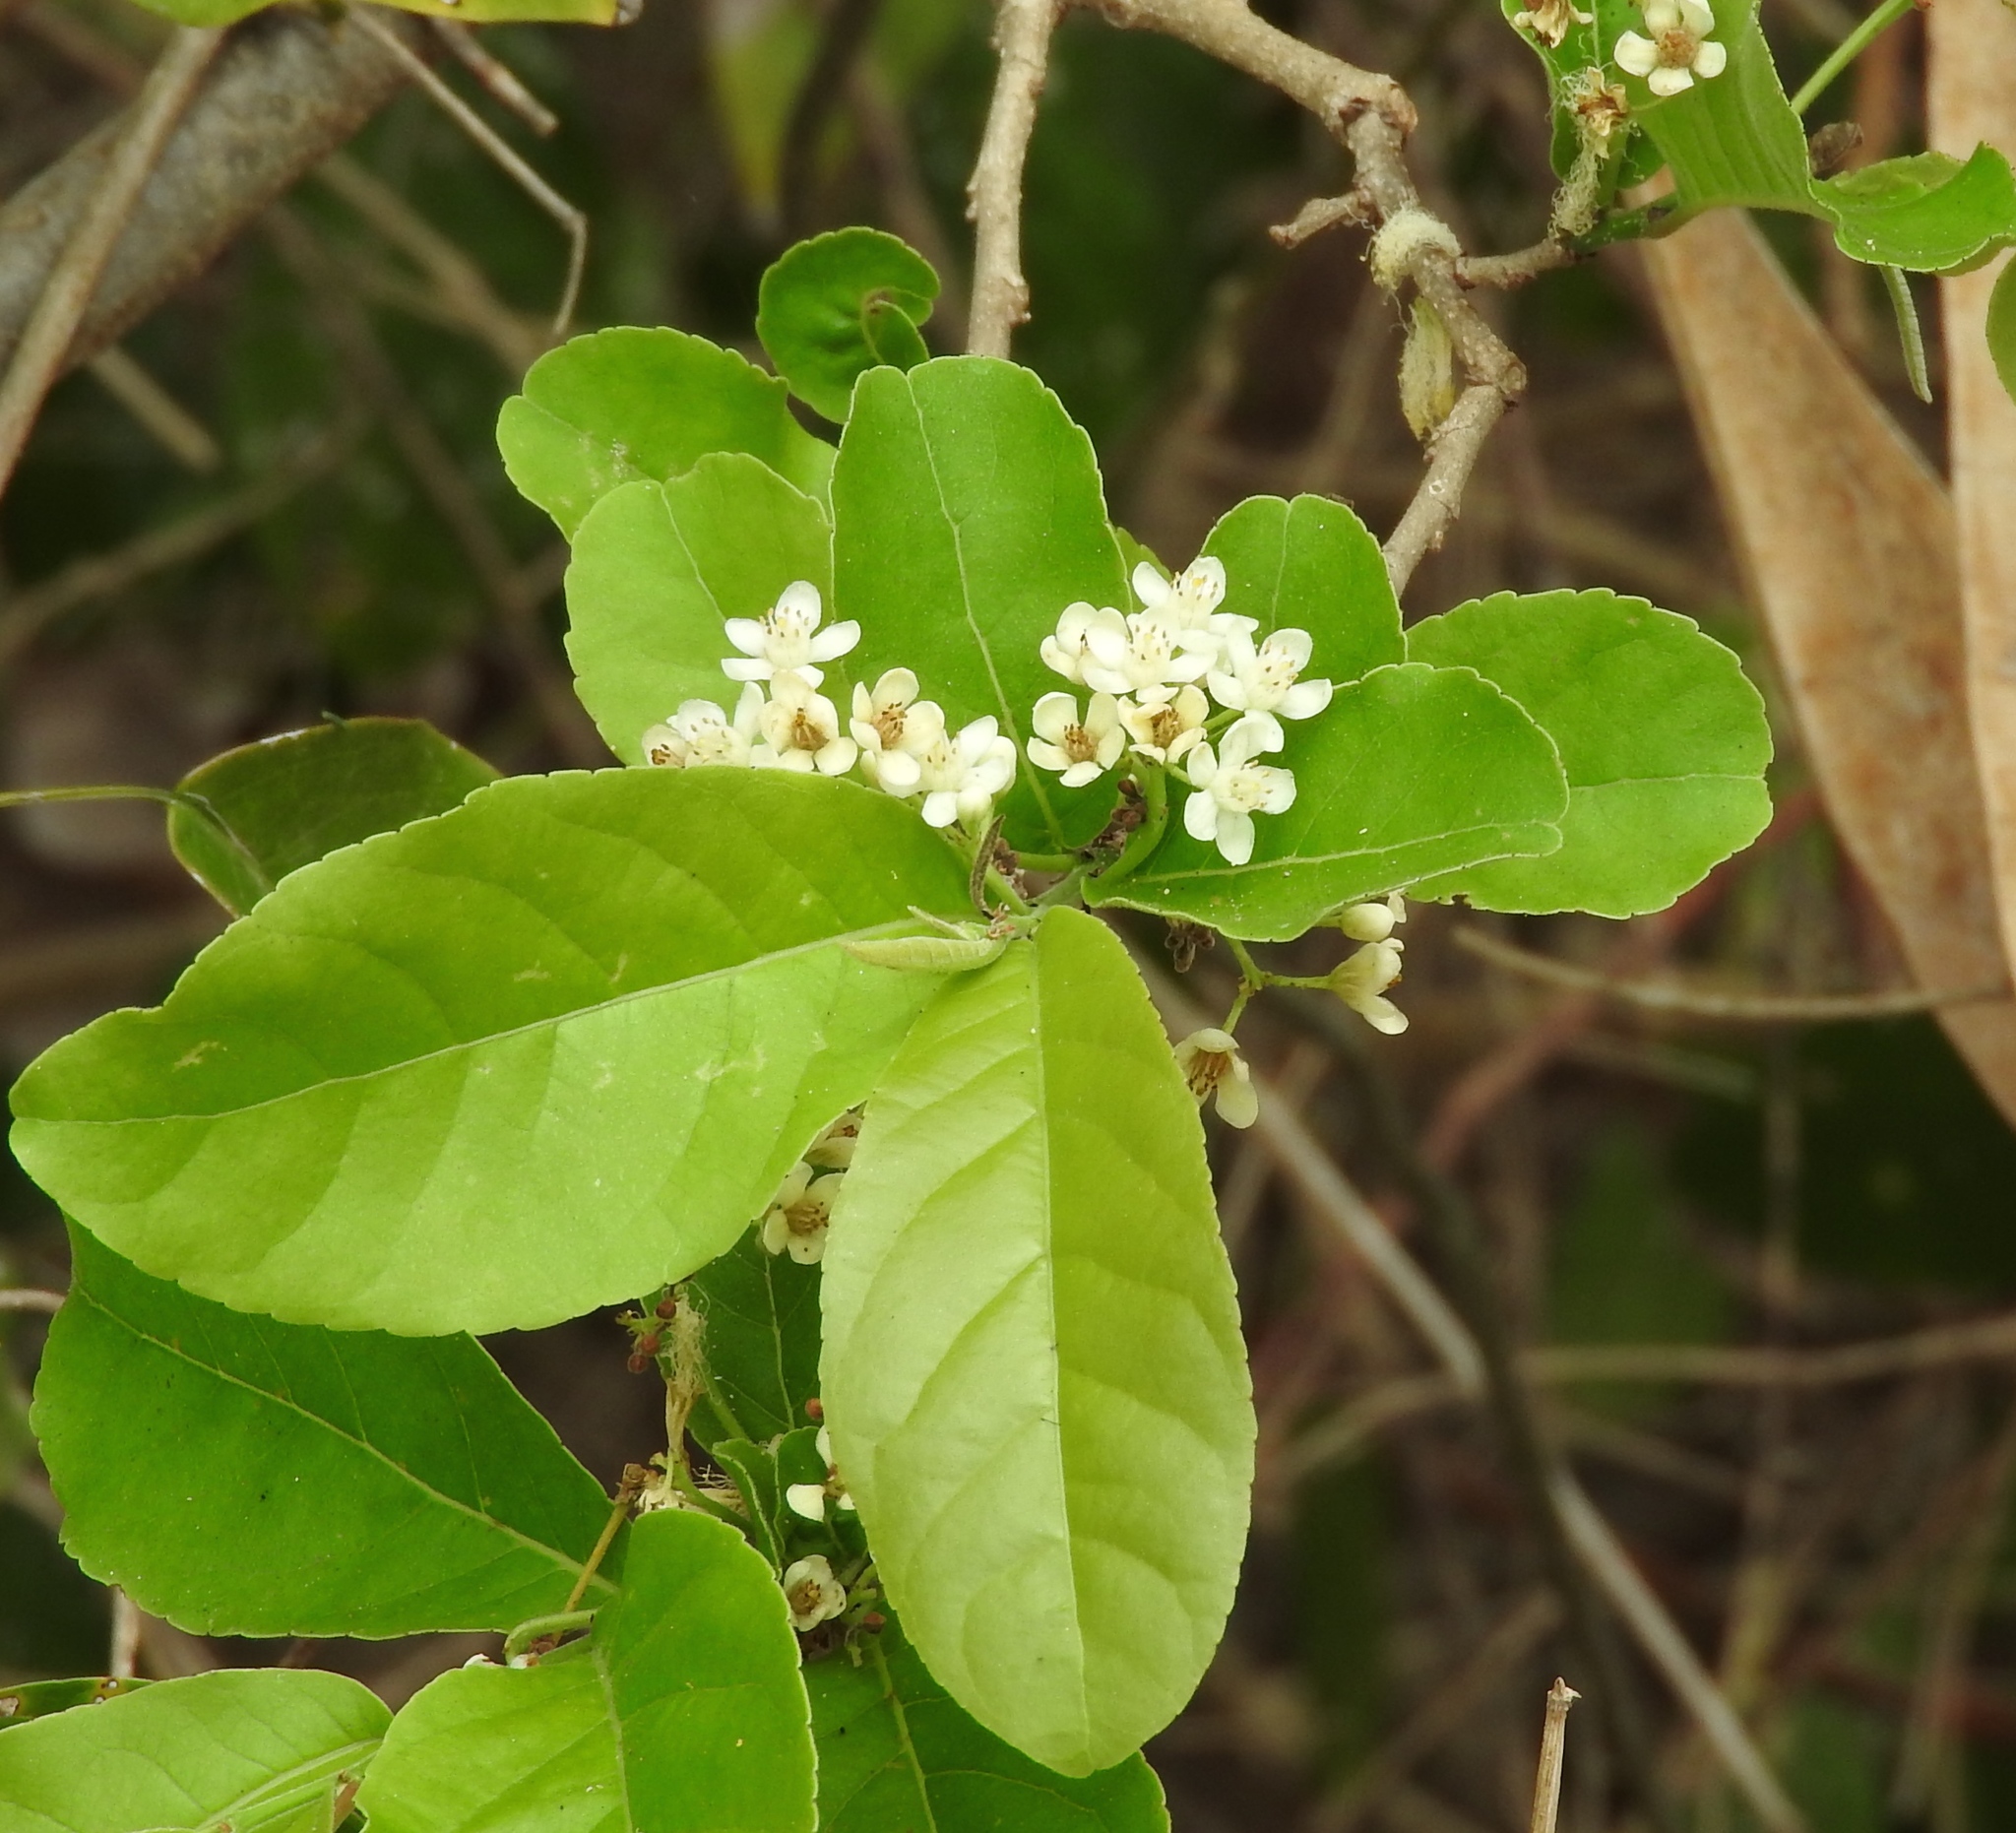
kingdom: Plantae
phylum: Tracheophyta
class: Magnoliopsida
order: Malpighiales
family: Salicaceae
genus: Casearia
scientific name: Casearia corymbosa
